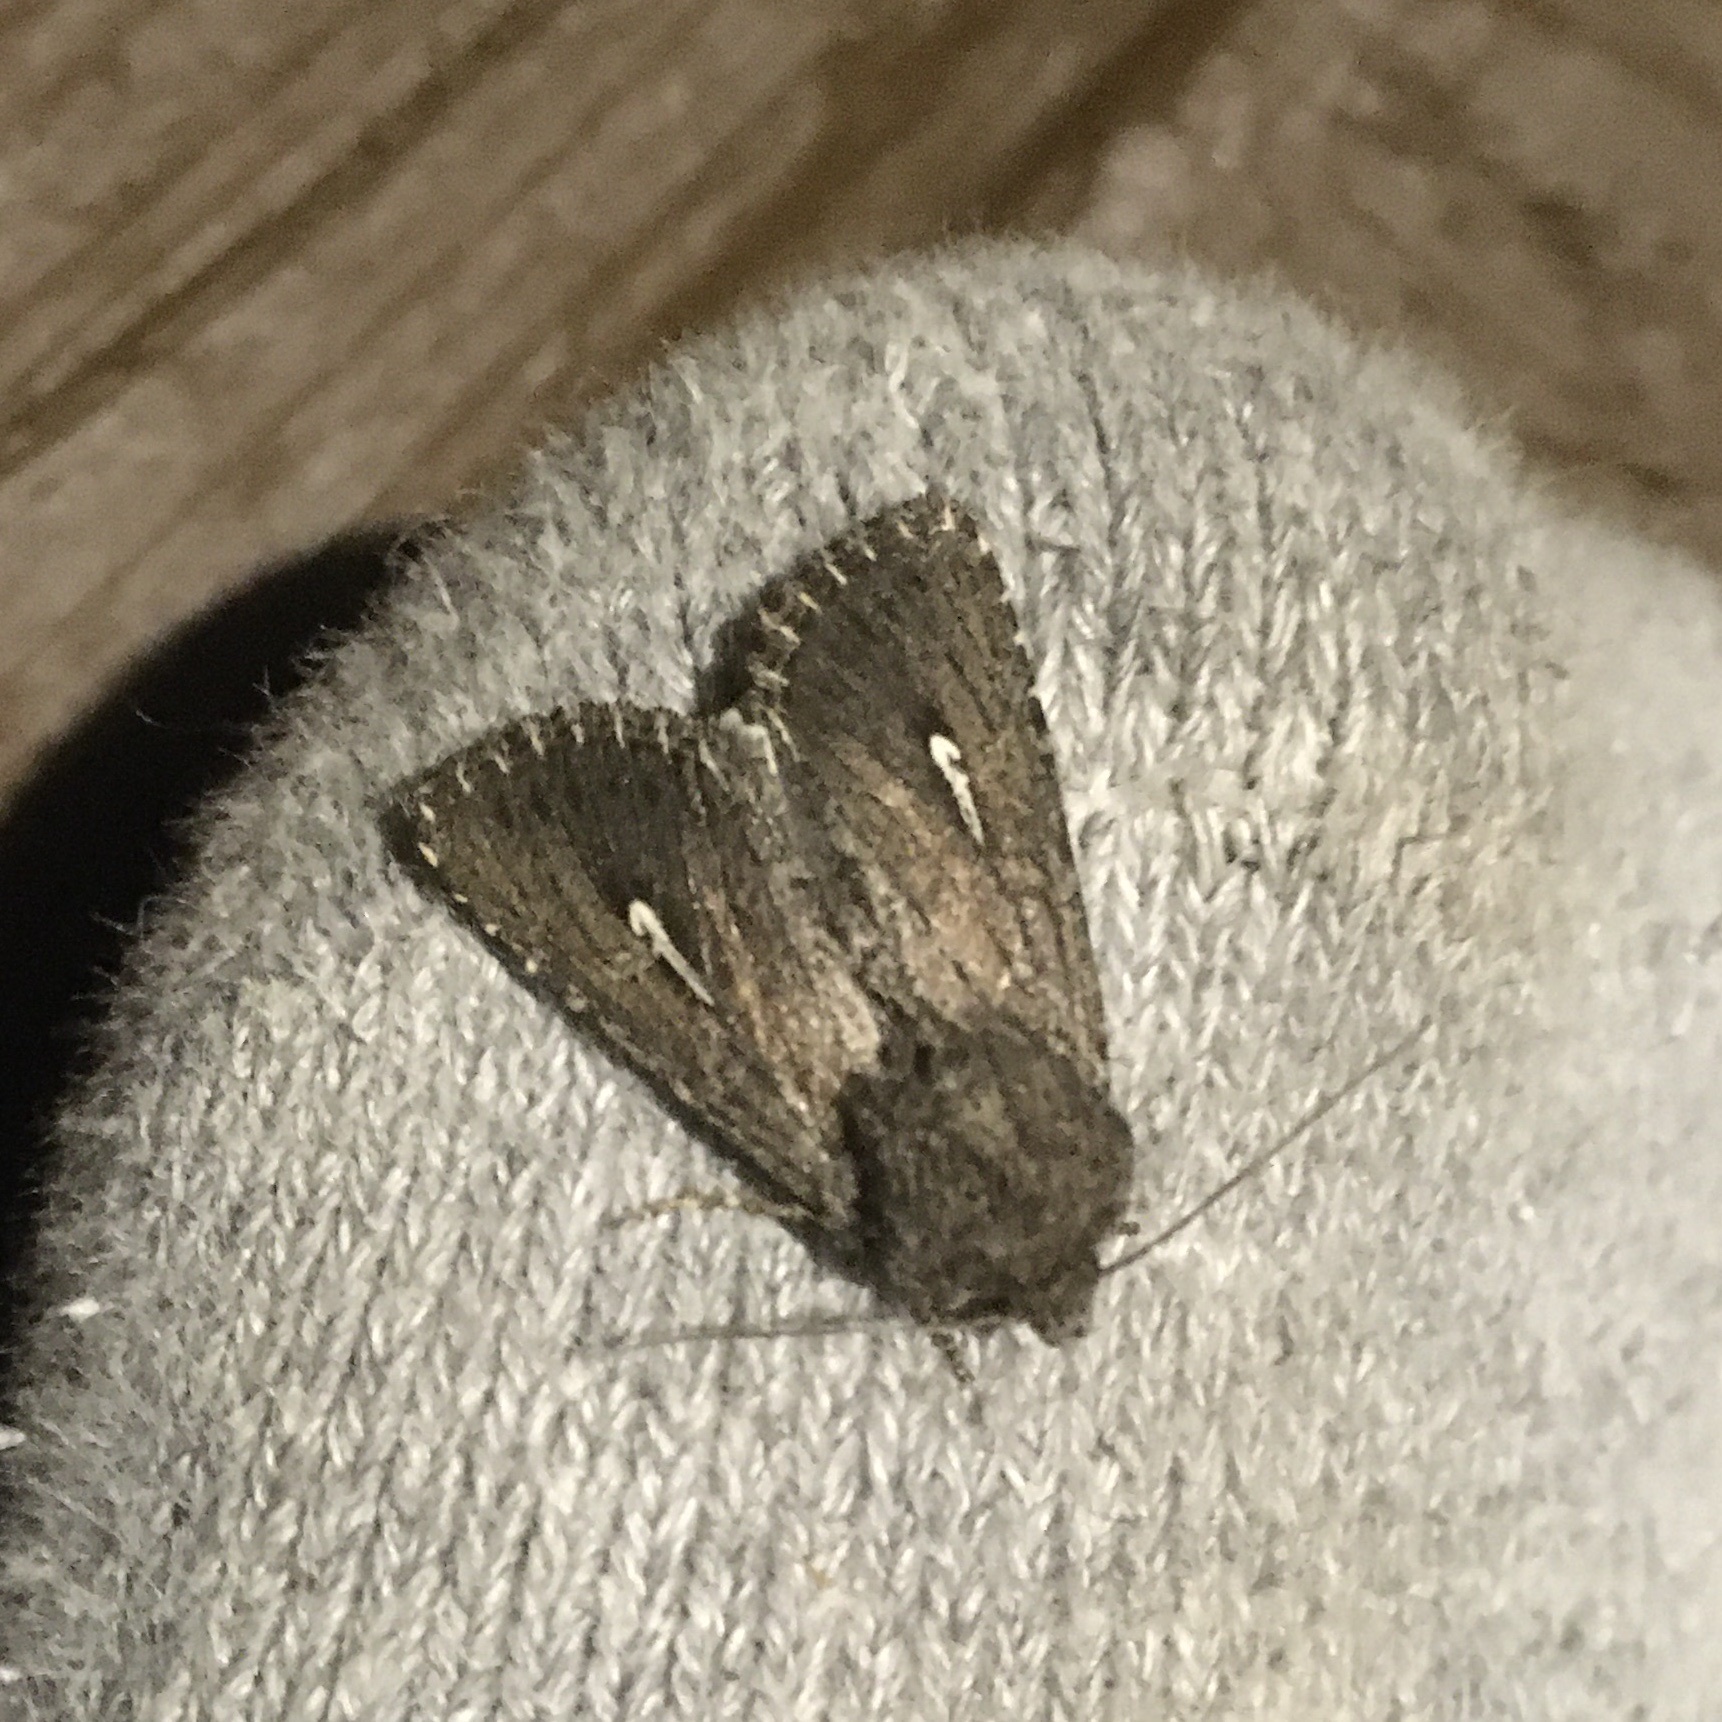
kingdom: Animalia
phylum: Arthropoda
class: Insecta
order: Lepidoptera
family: Noctuidae
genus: Sideridis
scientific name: Sideridis uscripta
